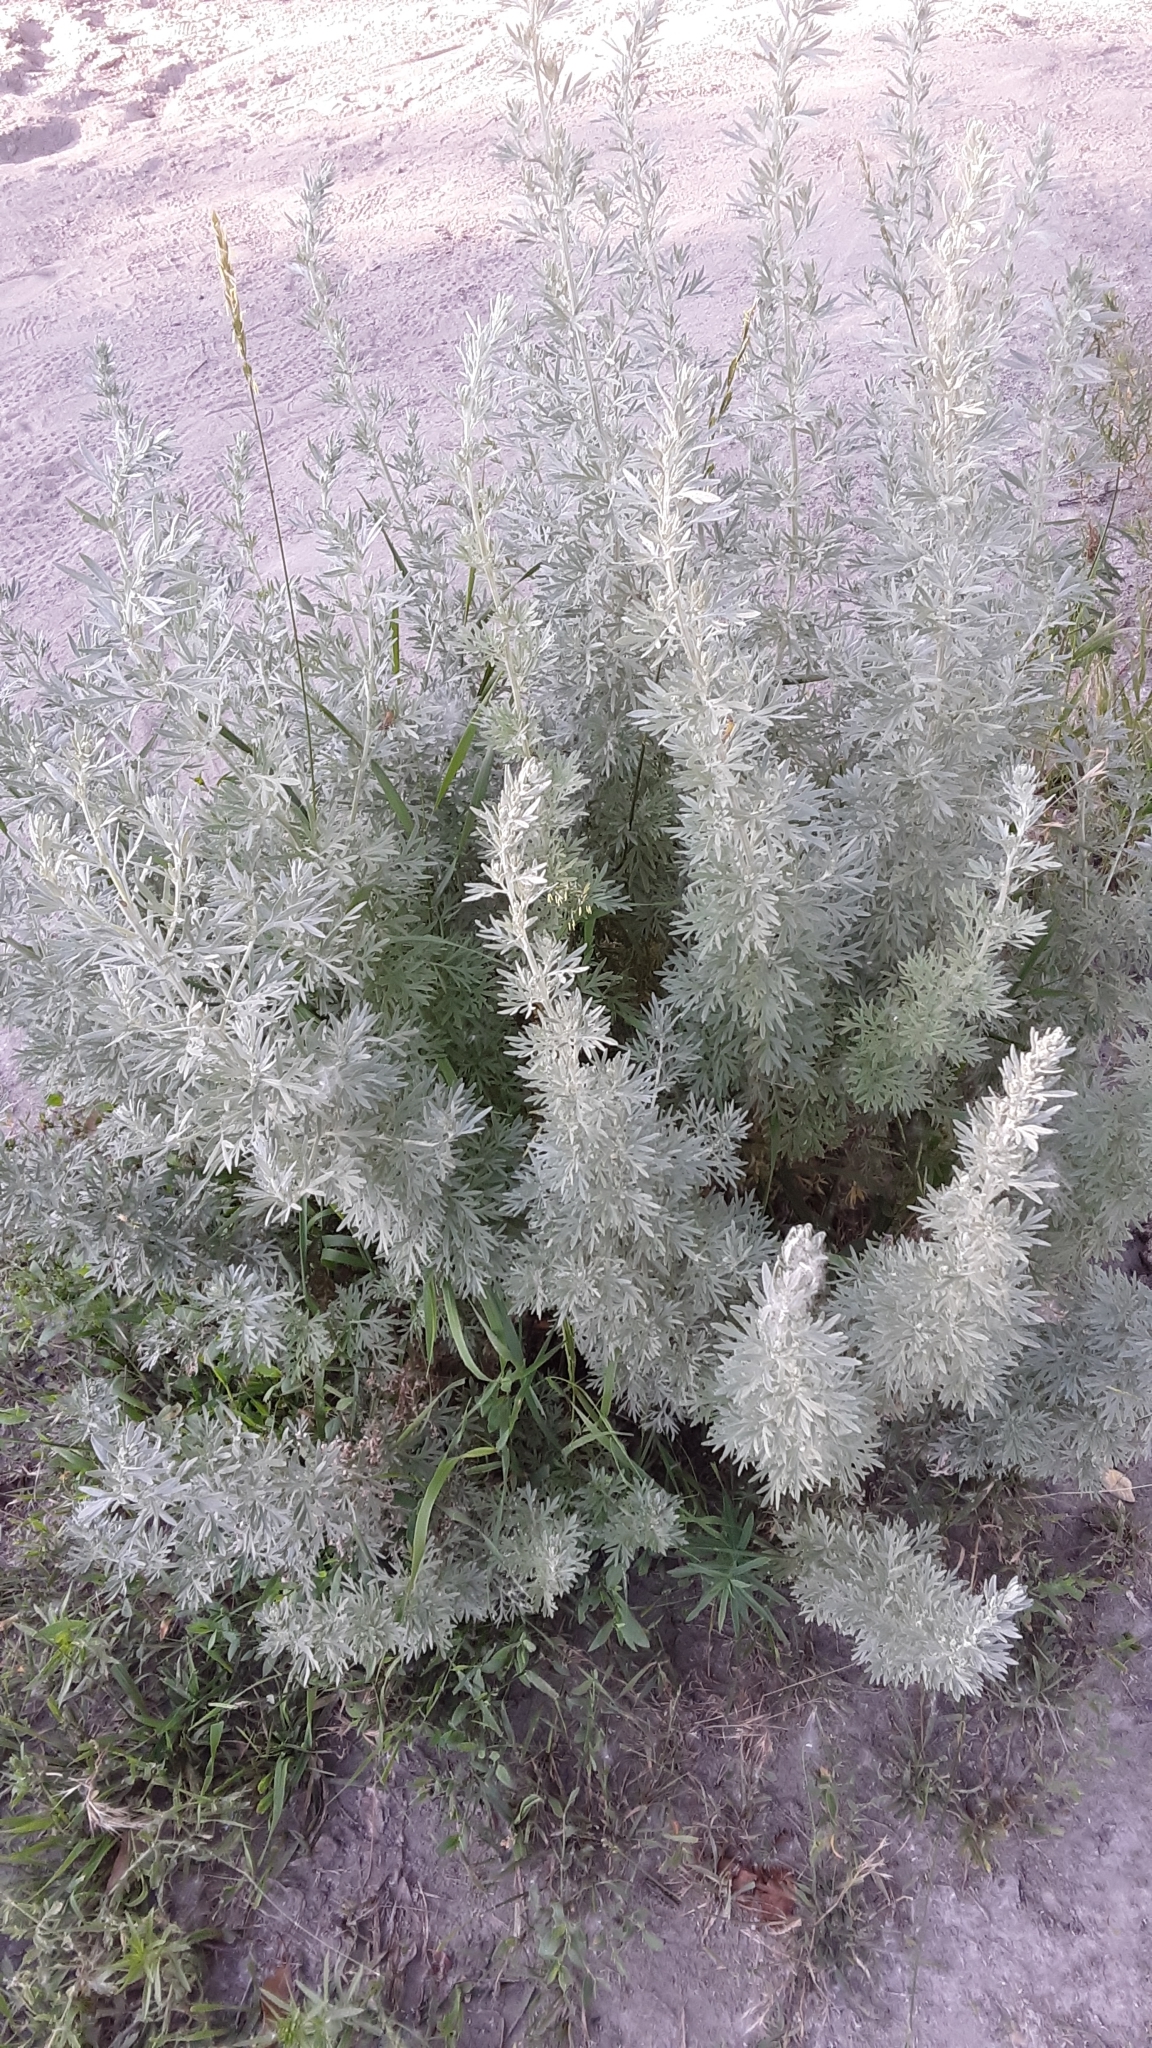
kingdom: Plantae
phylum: Tracheophyta
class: Magnoliopsida
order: Asterales
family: Asteraceae
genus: Artemisia
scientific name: Artemisia absinthium
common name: Wormwood
